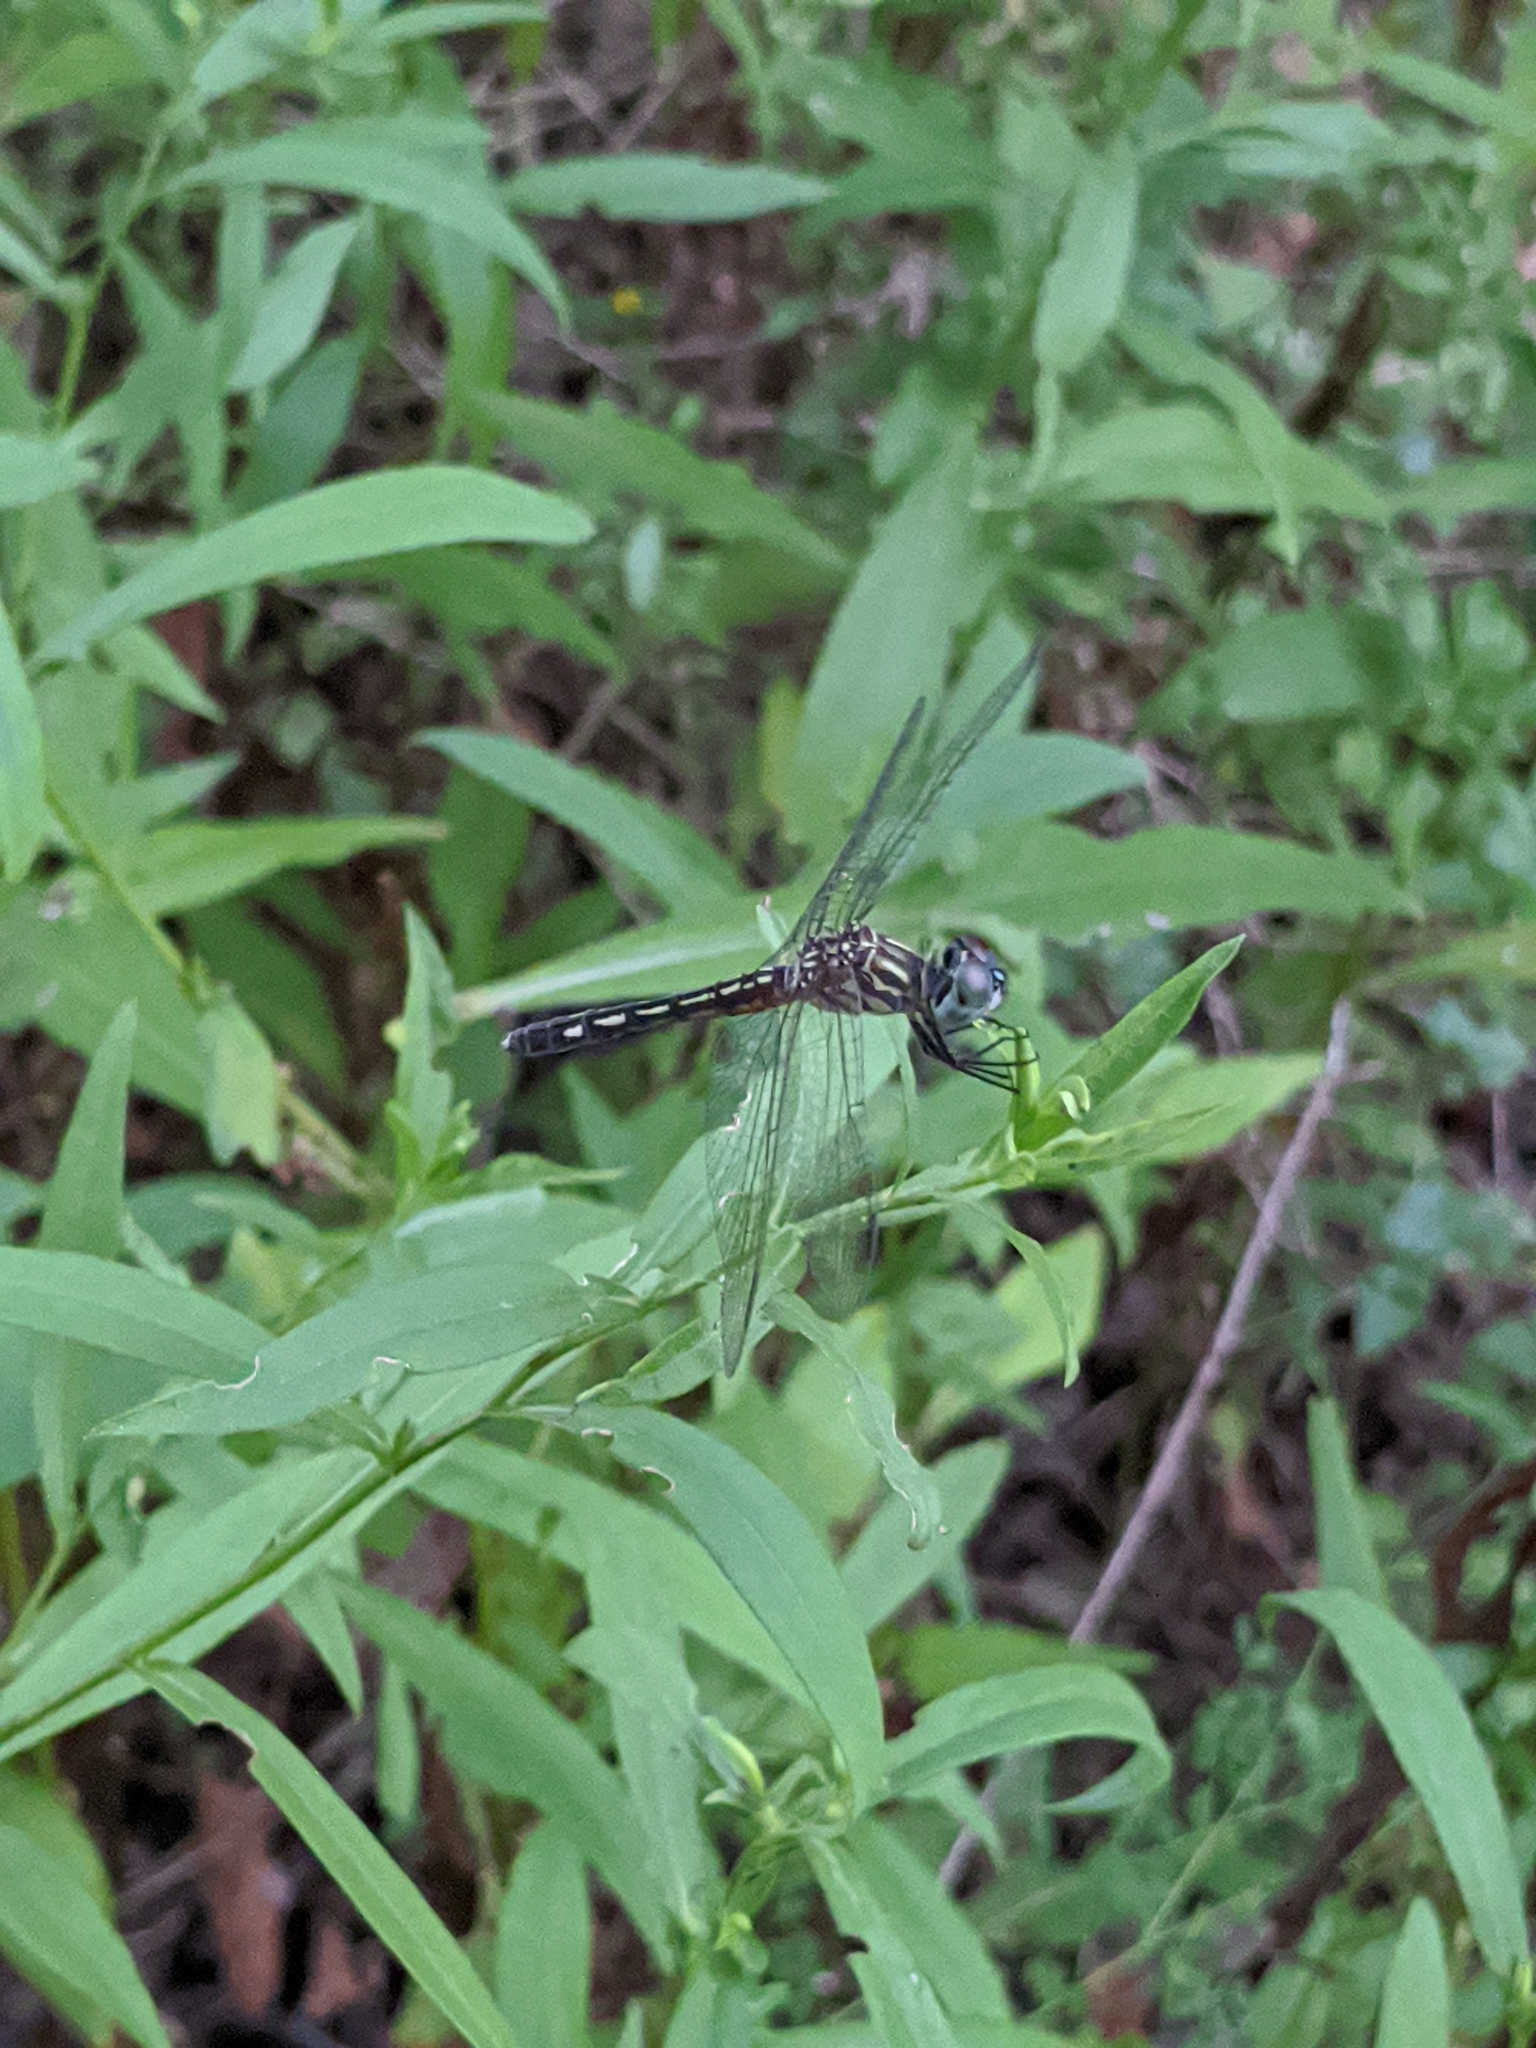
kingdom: Animalia
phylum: Arthropoda
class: Insecta
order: Odonata
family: Libellulidae
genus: Pachydiplax
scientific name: Pachydiplax longipennis
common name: Blue dasher
